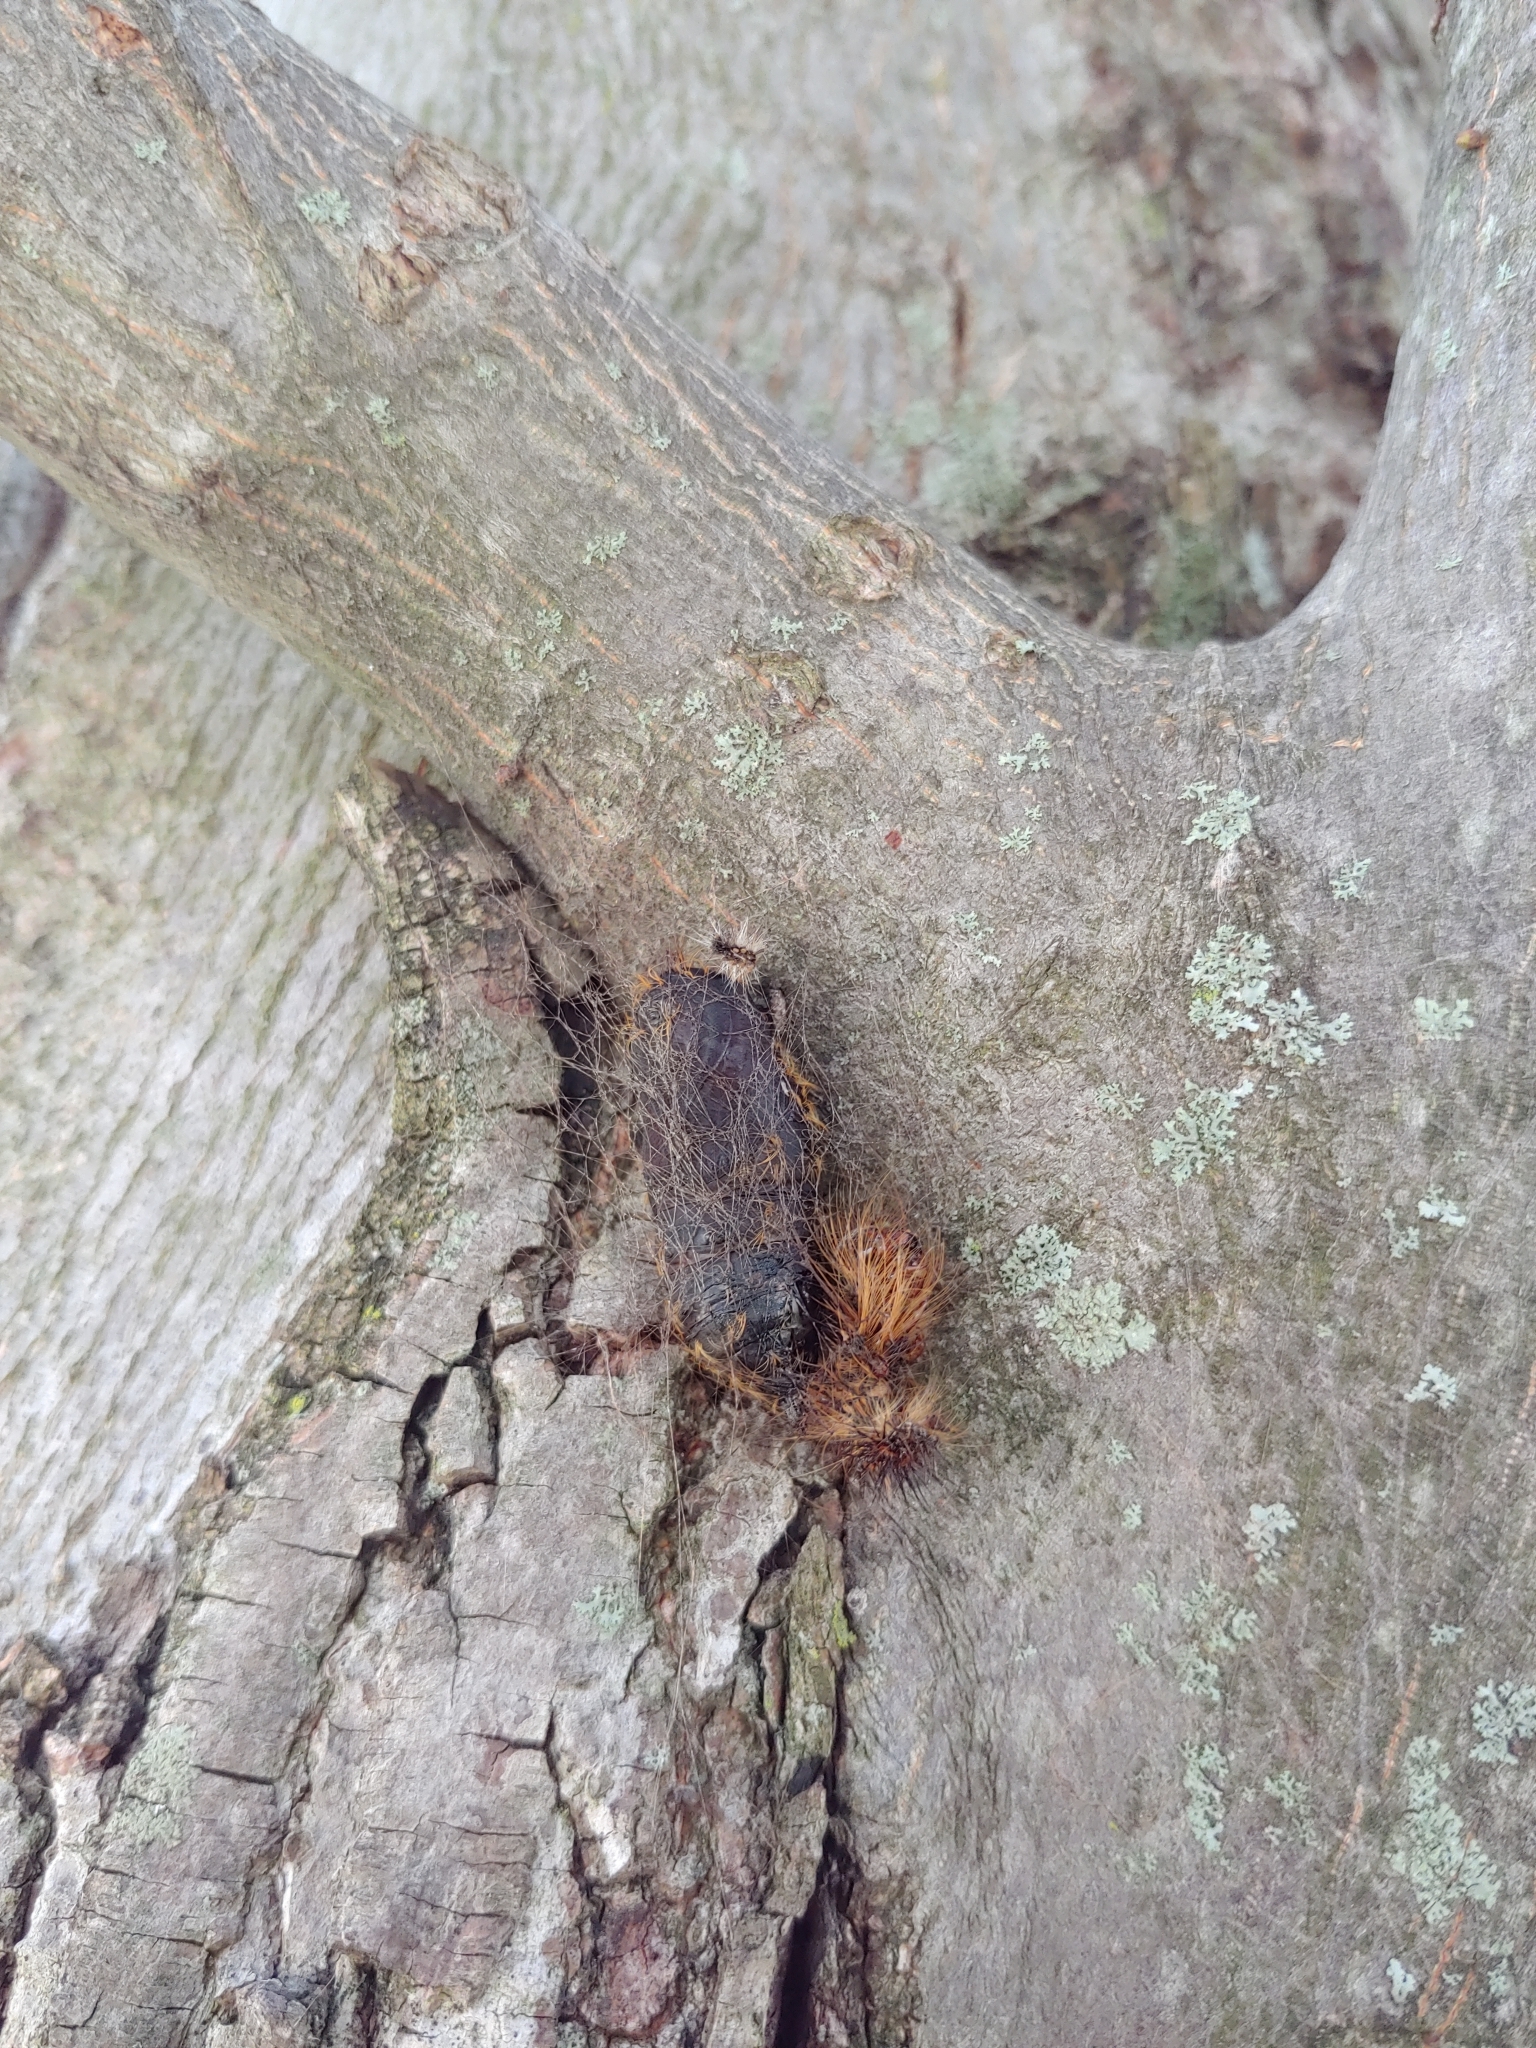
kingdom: Animalia
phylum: Arthropoda
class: Insecta
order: Lepidoptera
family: Erebidae
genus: Lymantria
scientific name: Lymantria dispar
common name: Gypsy moth
